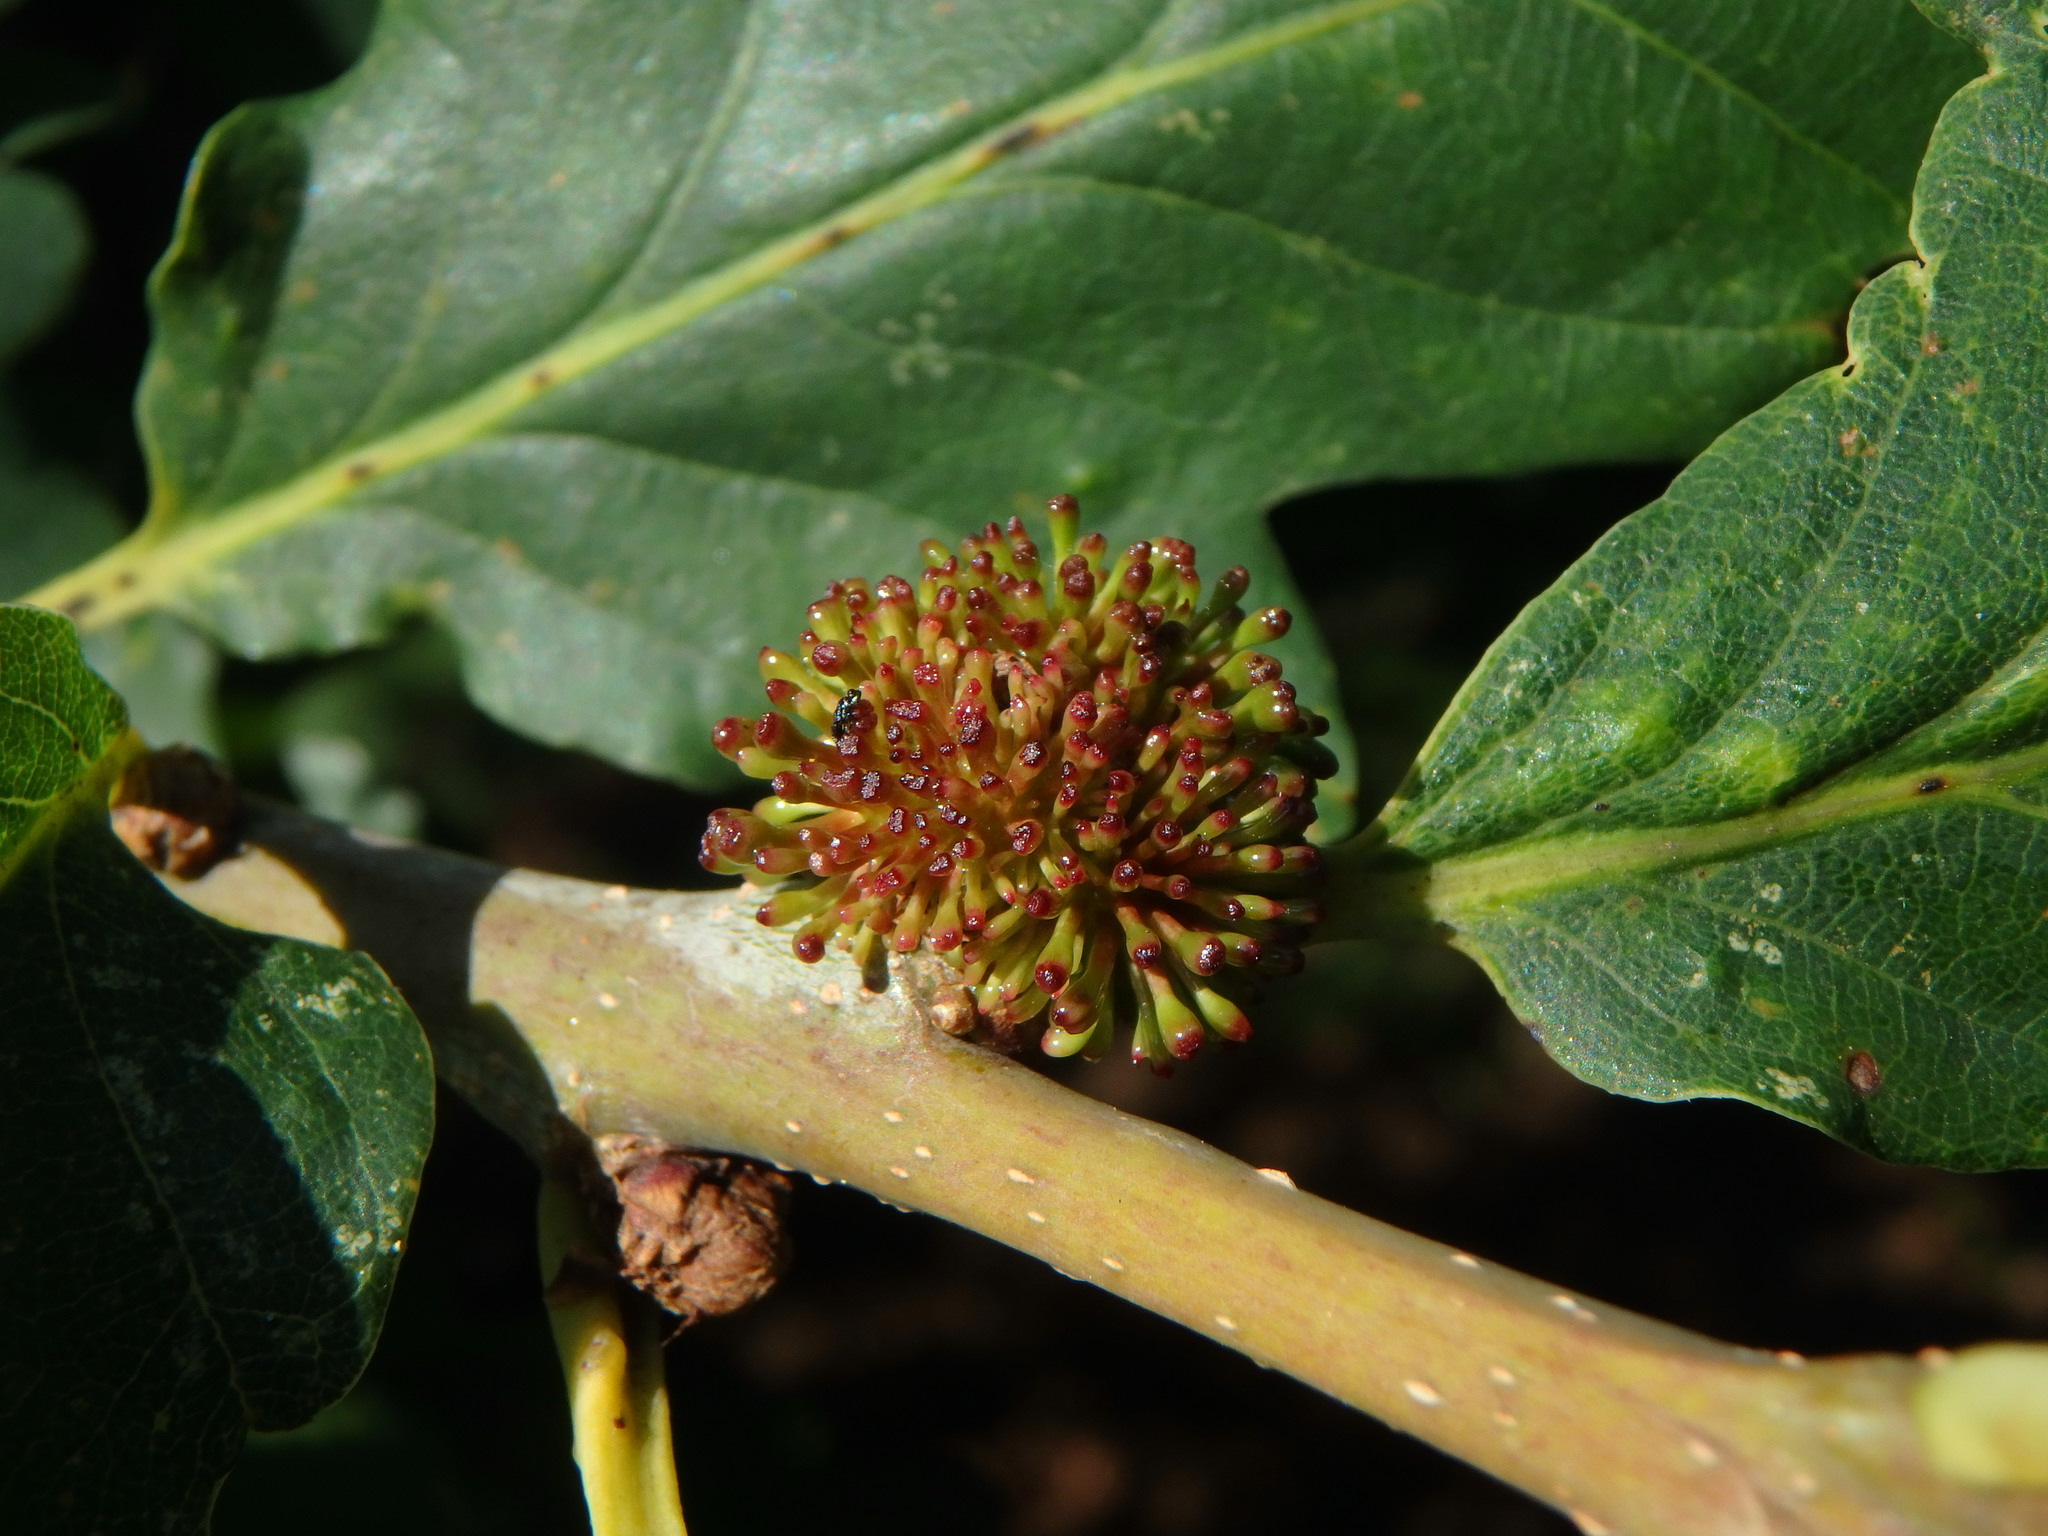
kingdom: Animalia
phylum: Arthropoda
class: Insecta
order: Hymenoptera
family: Cynipidae
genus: Andricus
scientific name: Andricus lucidus
